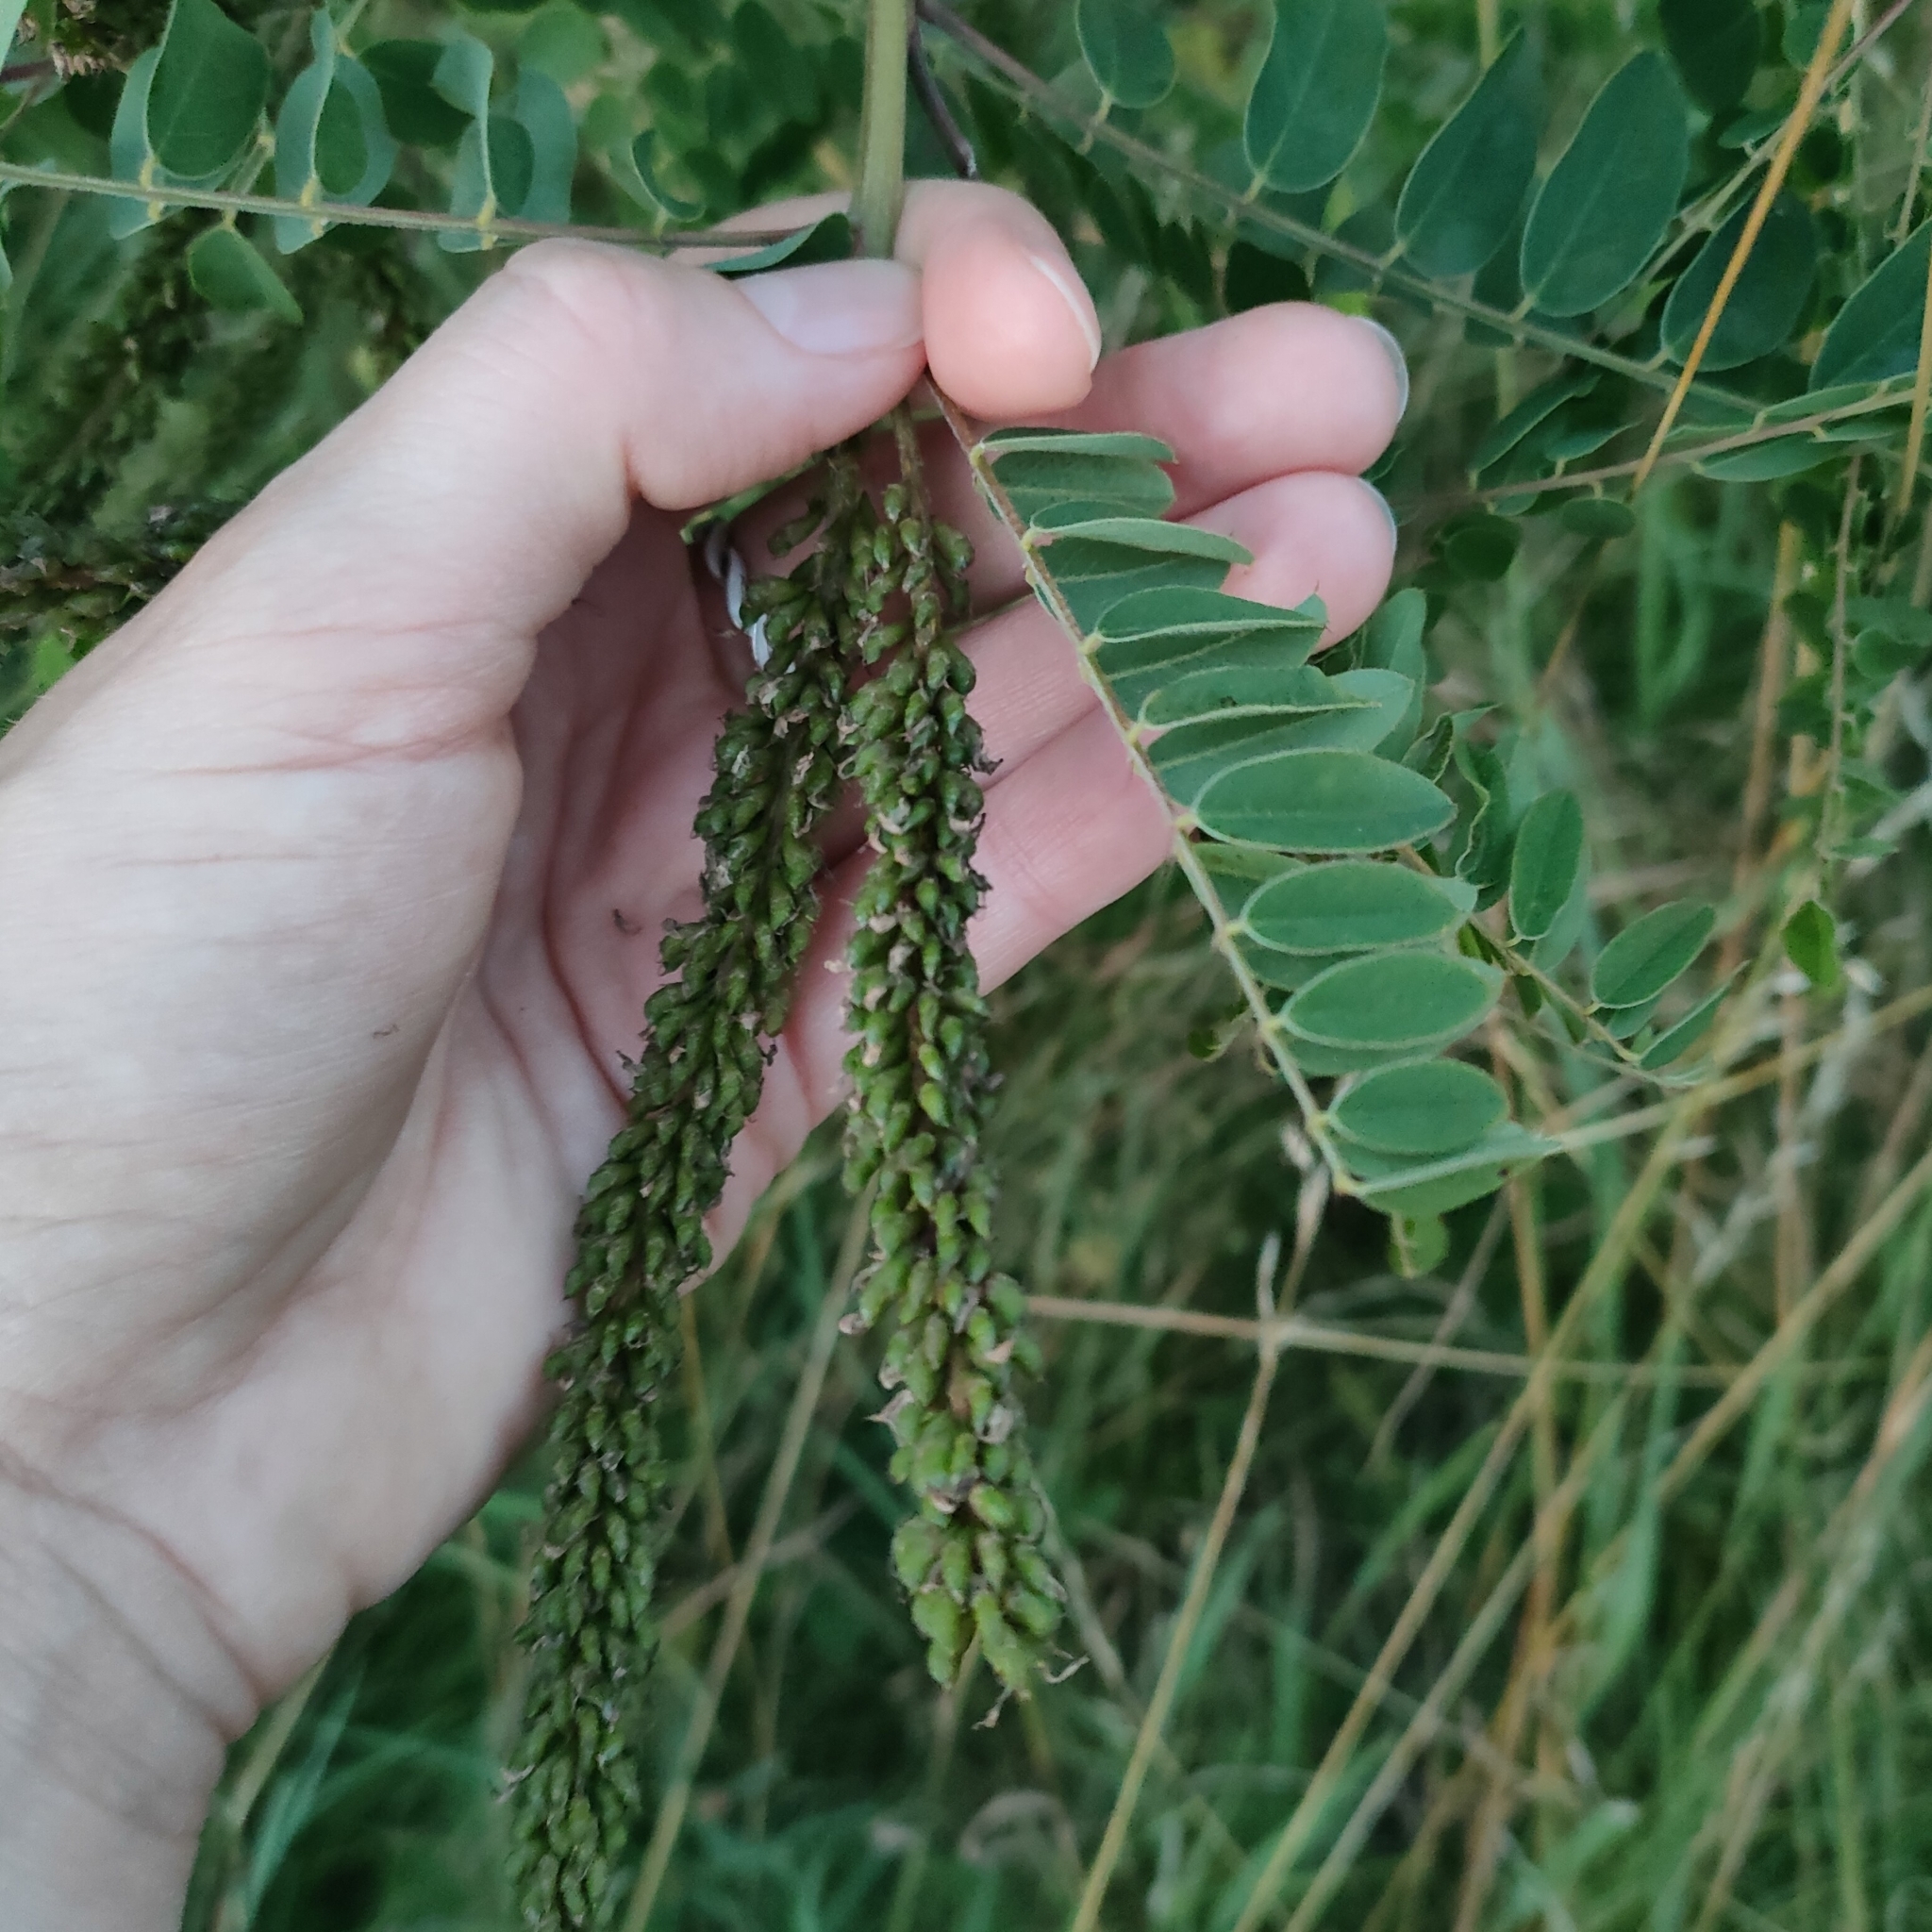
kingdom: Plantae
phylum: Tracheophyta
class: Magnoliopsida
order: Fabales
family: Fabaceae
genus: Amorpha
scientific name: Amorpha fruticosa
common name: False indigo
